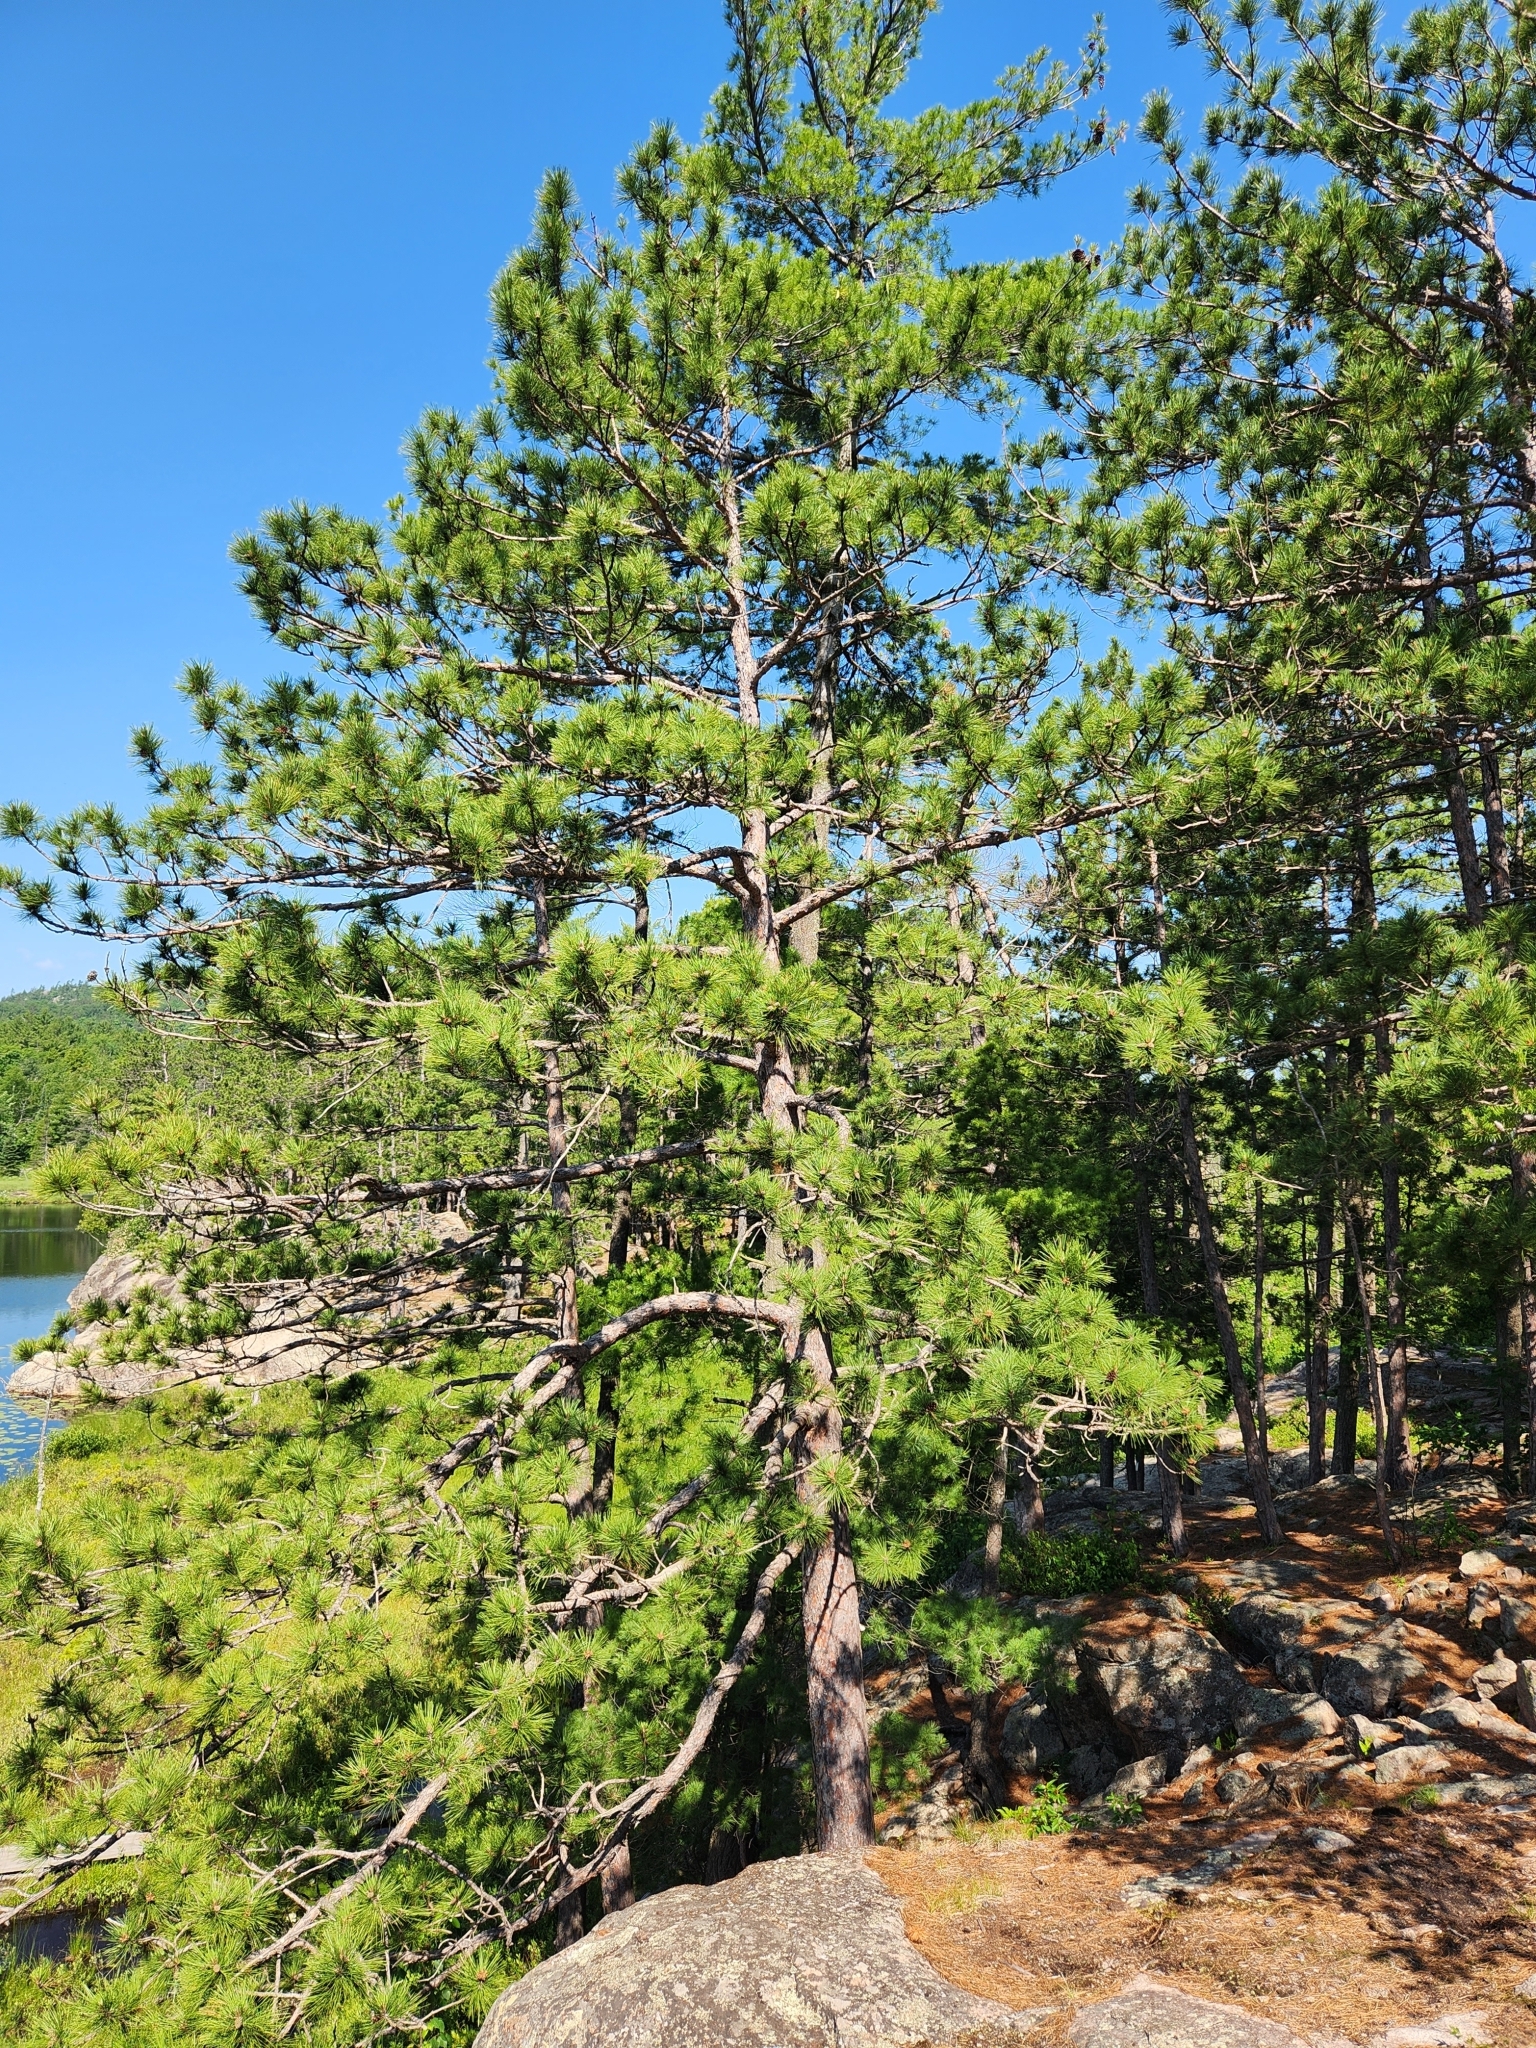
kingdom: Plantae
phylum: Tracheophyta
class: Pinopsida
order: Pinales
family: Pinaceae
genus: Pinus
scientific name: Pinus resinosa
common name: Norway pine
